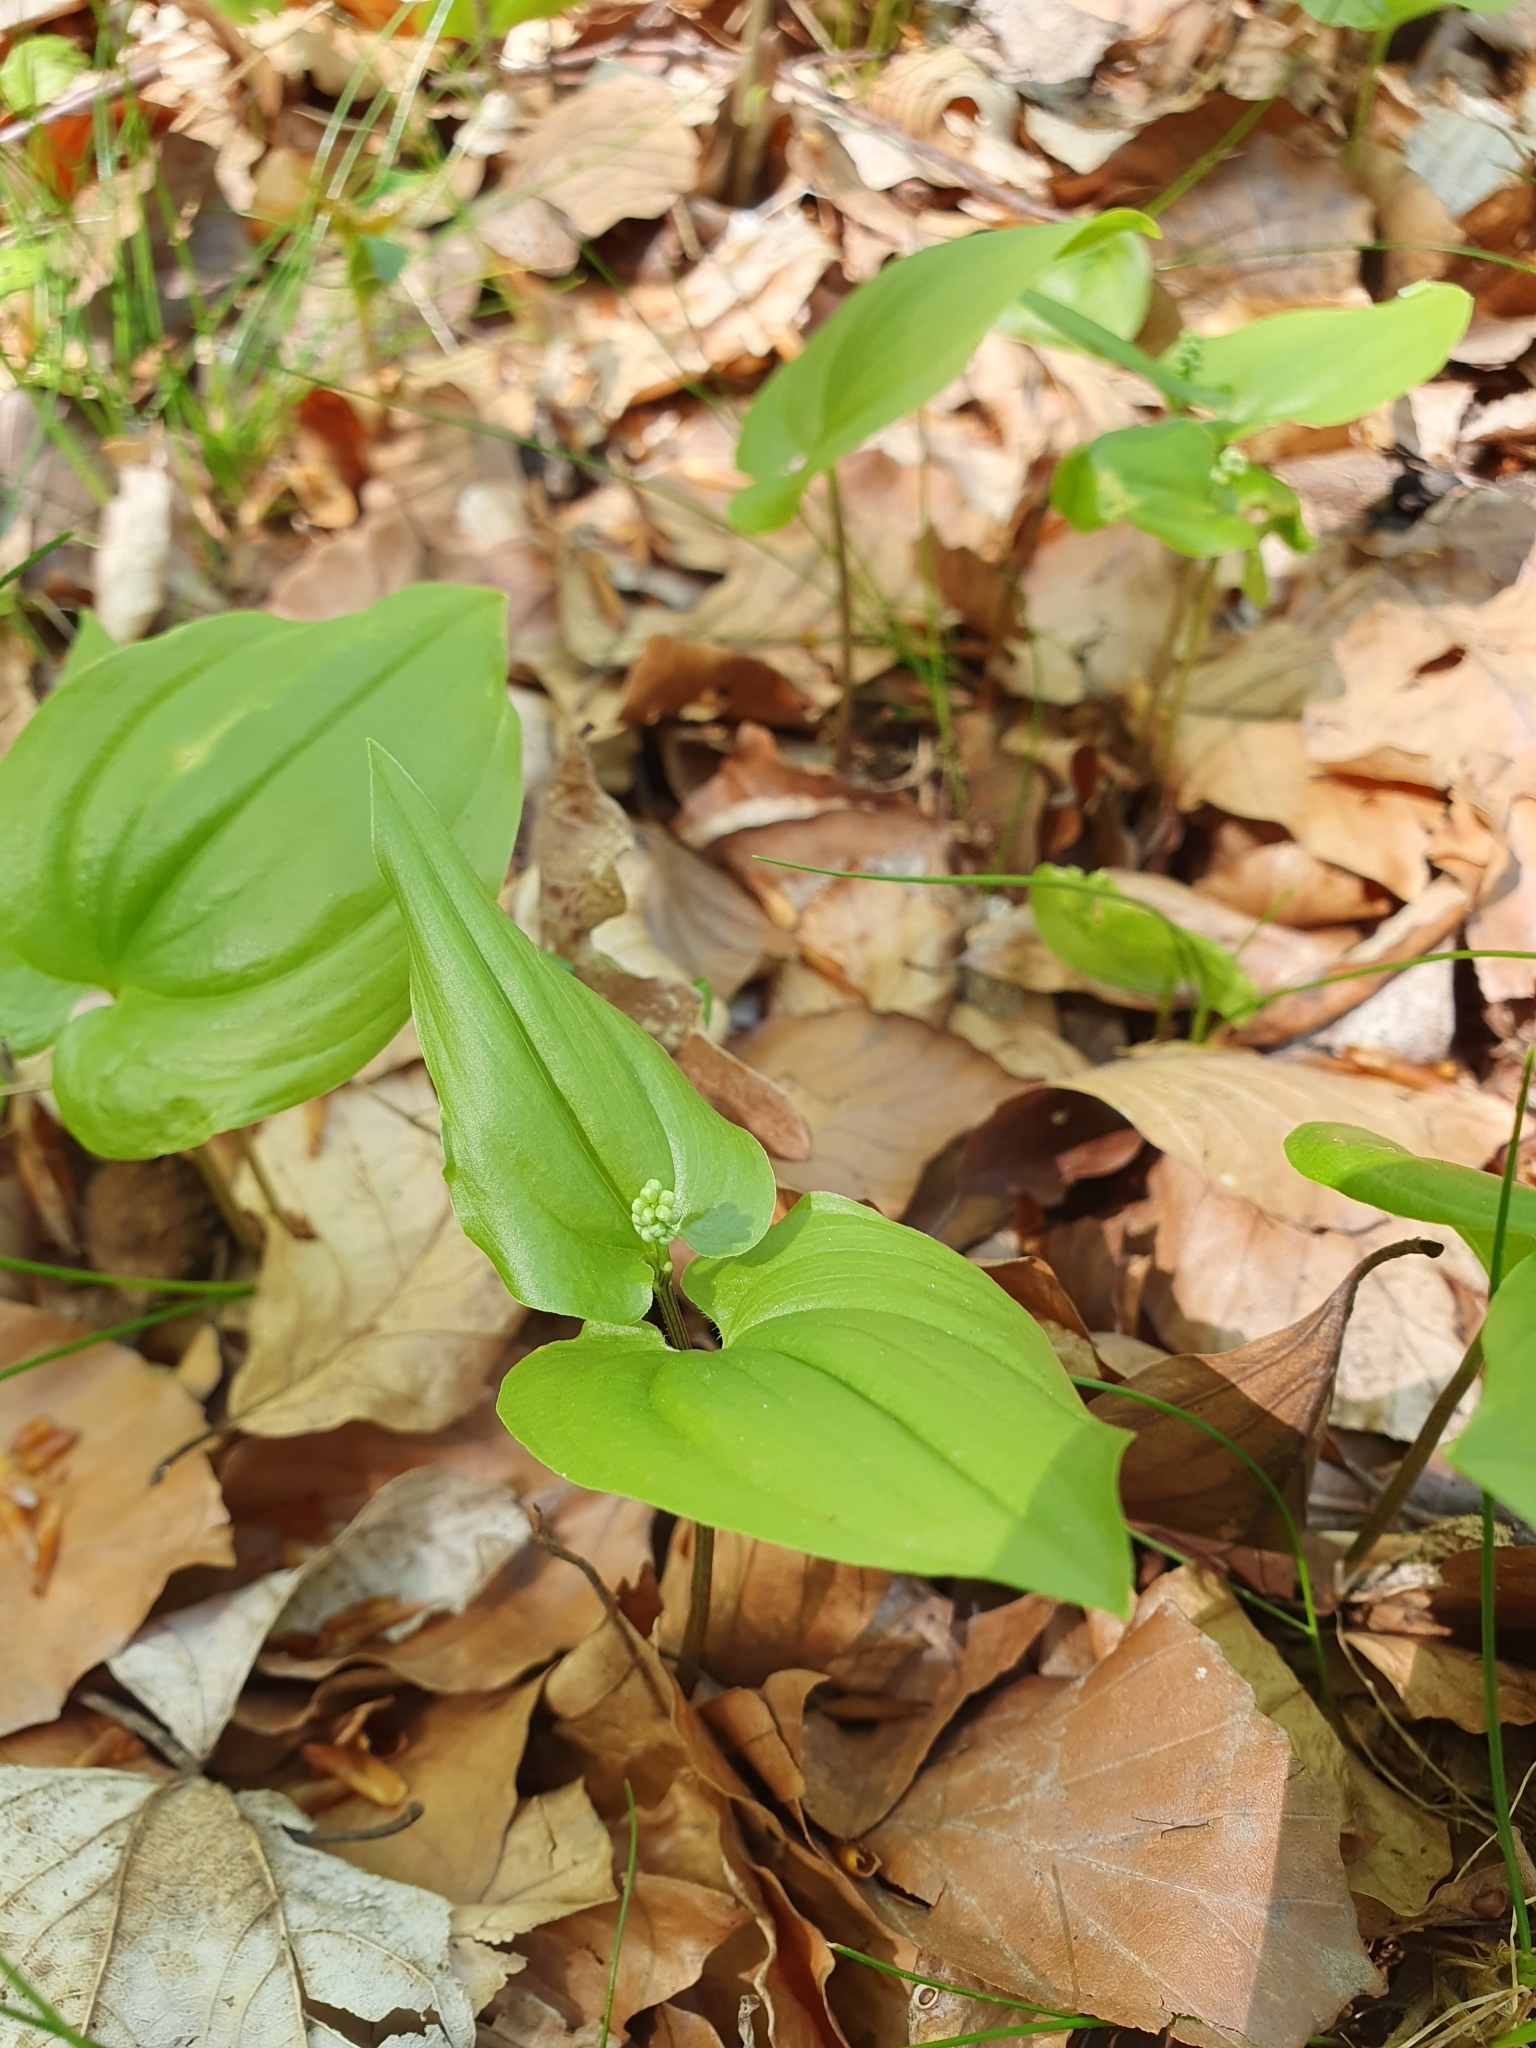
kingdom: Plantae
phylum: Tracheophyta
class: Liliopsida
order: Asparagales
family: Asparagaceae
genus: Maianthemum
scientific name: Maianthemum bifolium
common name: May lily
